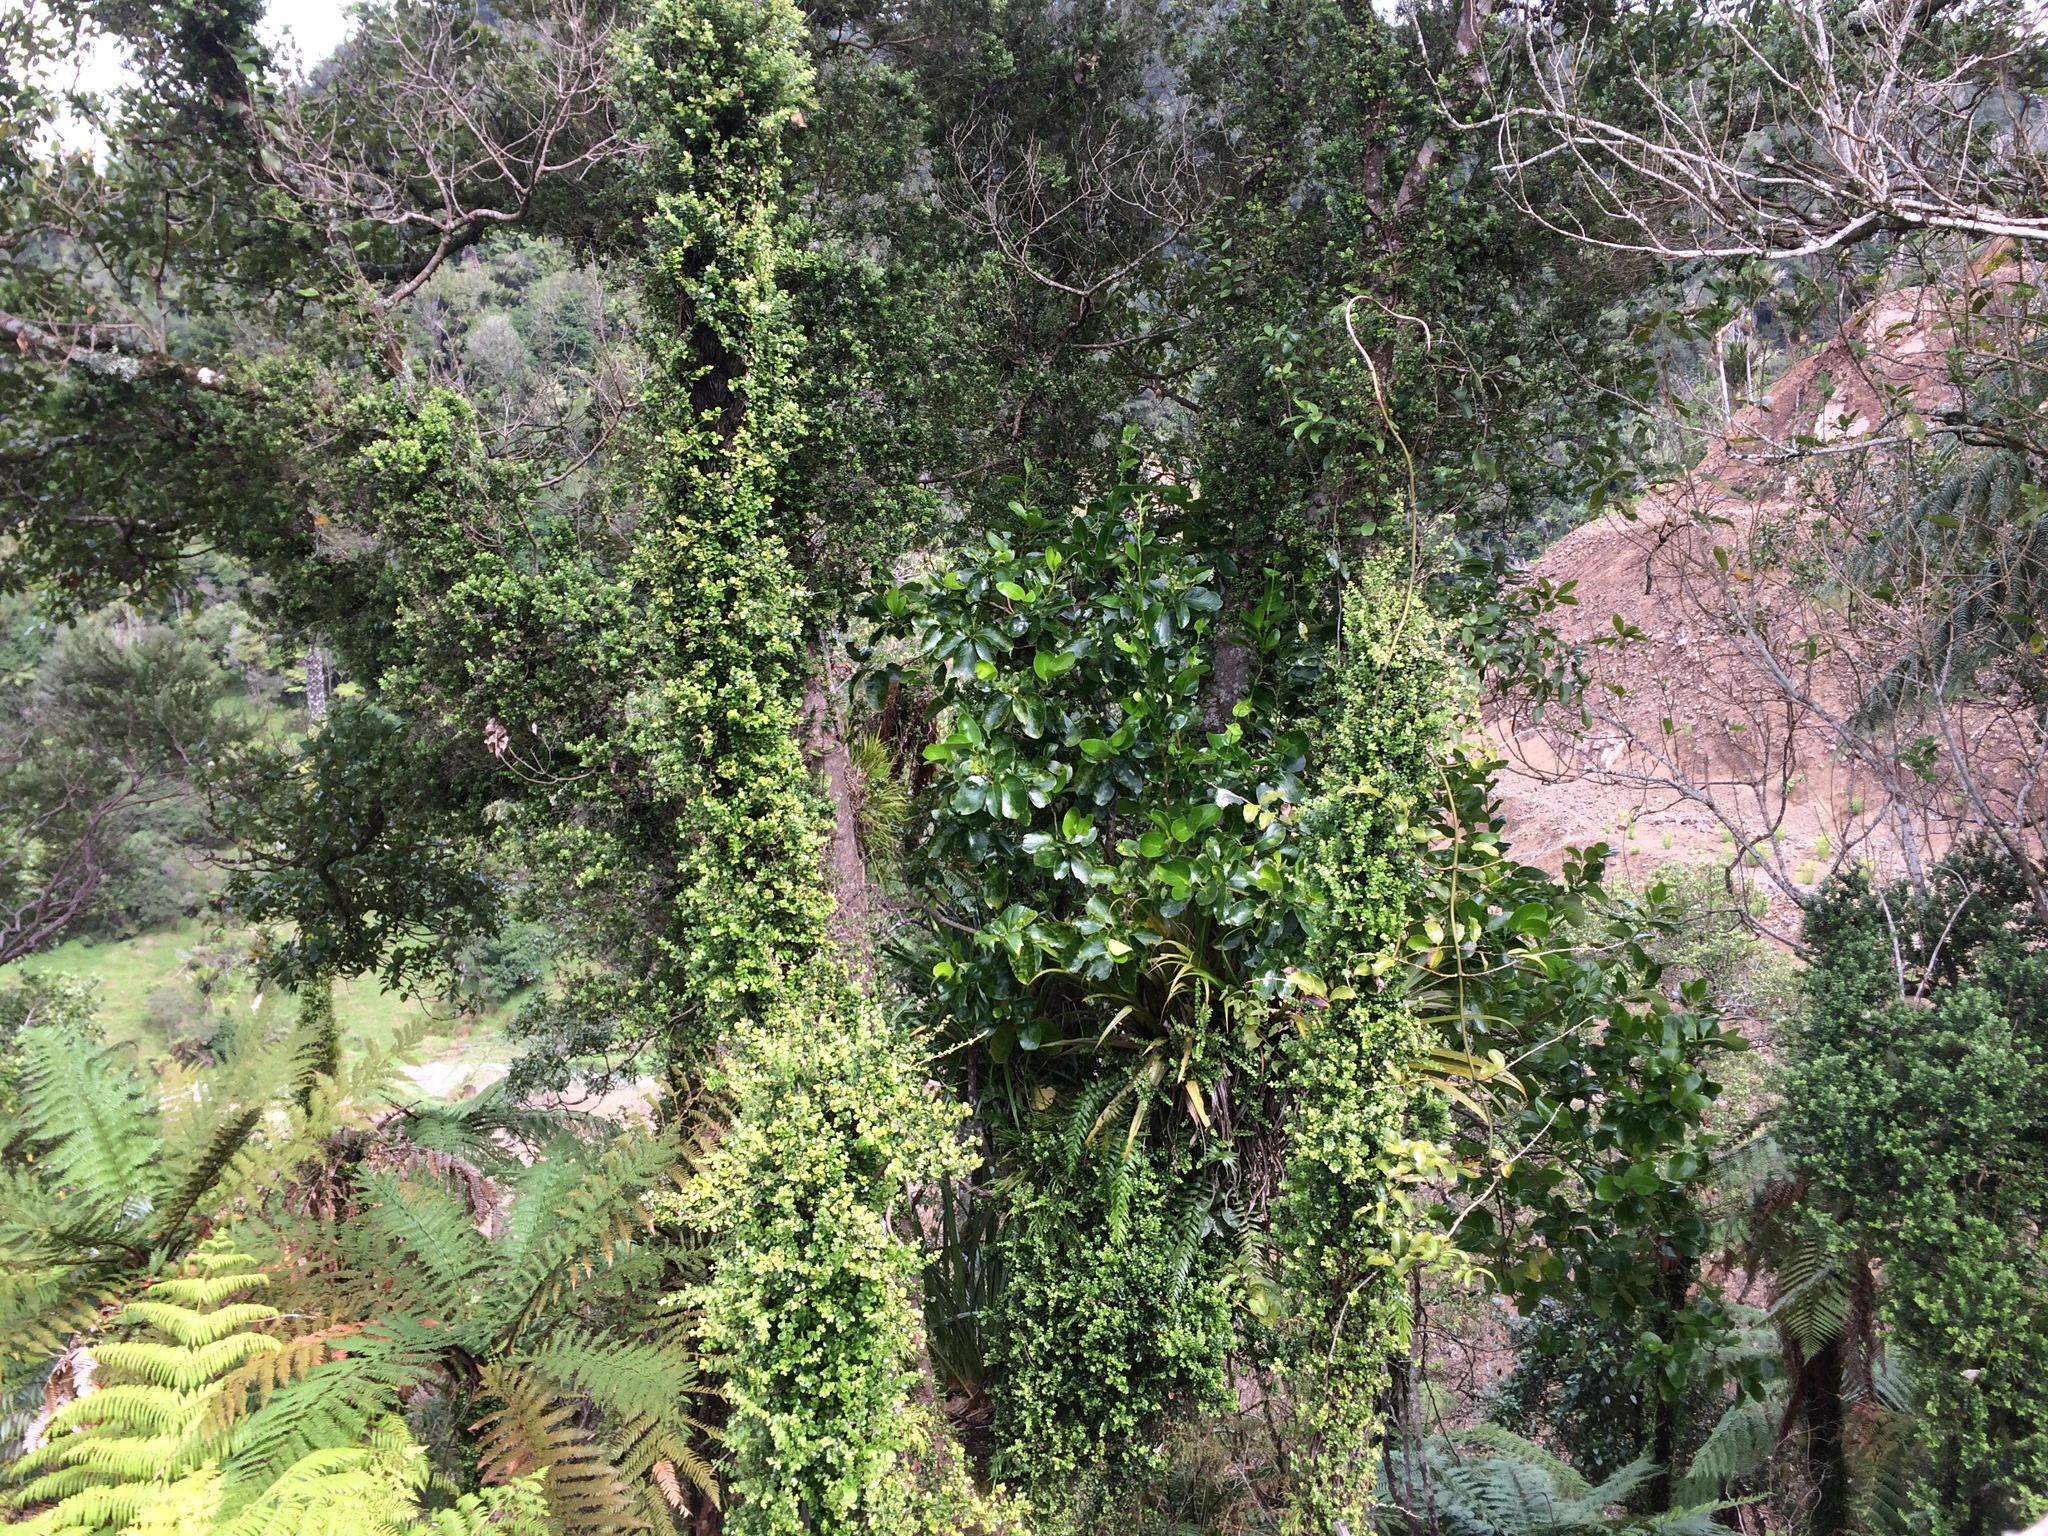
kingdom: Plantae
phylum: Tracheophyta
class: Magnoliopsida
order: Myrtales
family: Myrtaceae
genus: Metrosideros
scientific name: Metrosideros perforata
